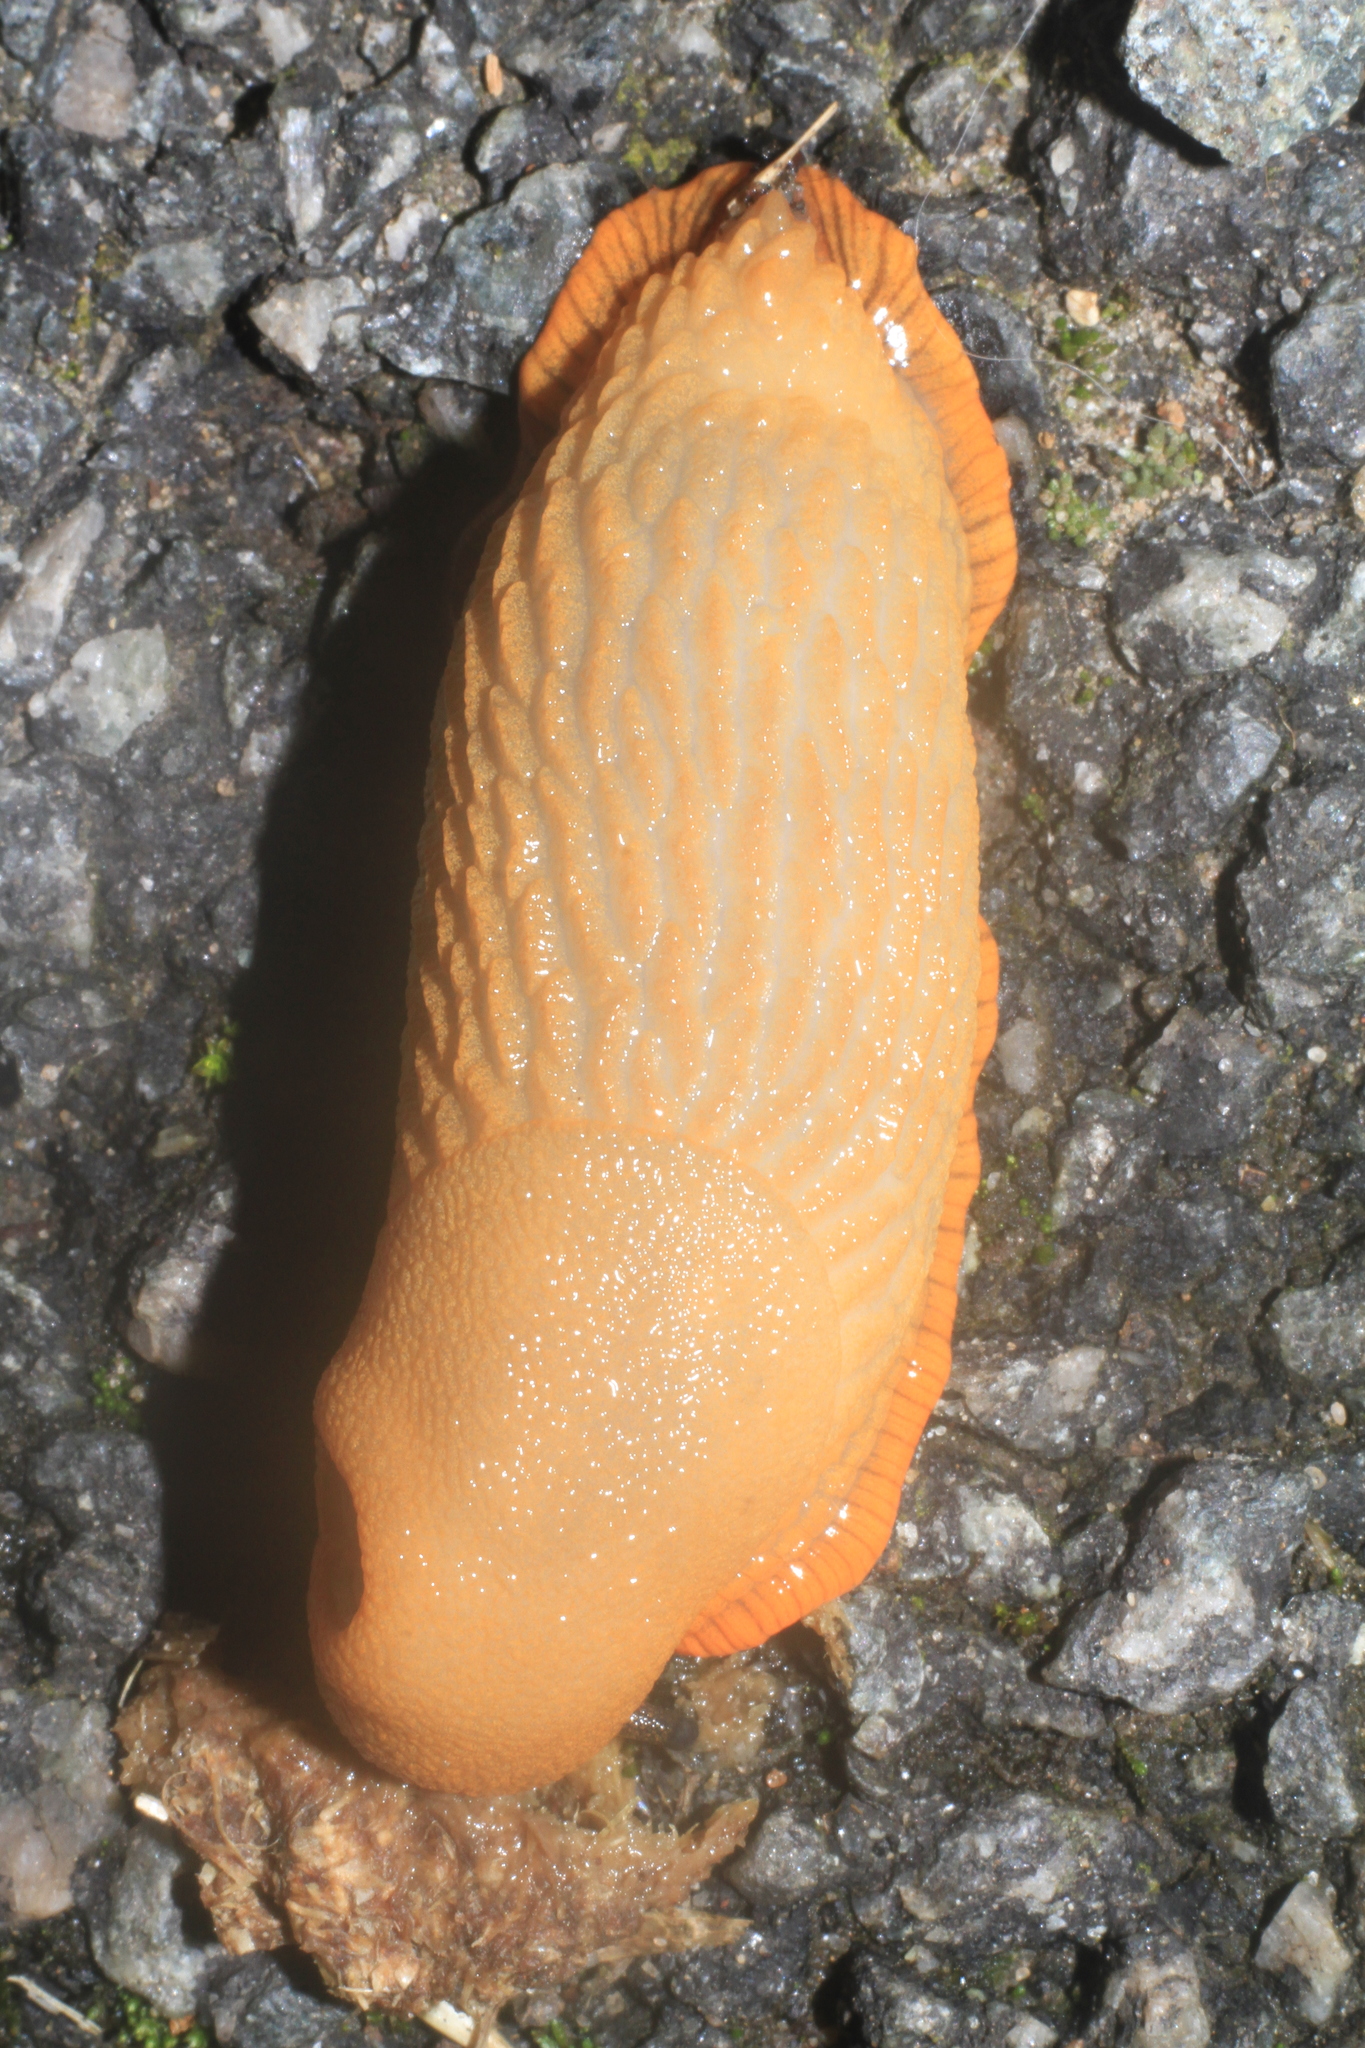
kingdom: Animalia
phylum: Mollusca
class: Gastropoda
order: Stylommatophora
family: Arionidae
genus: Arion
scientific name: Arion
